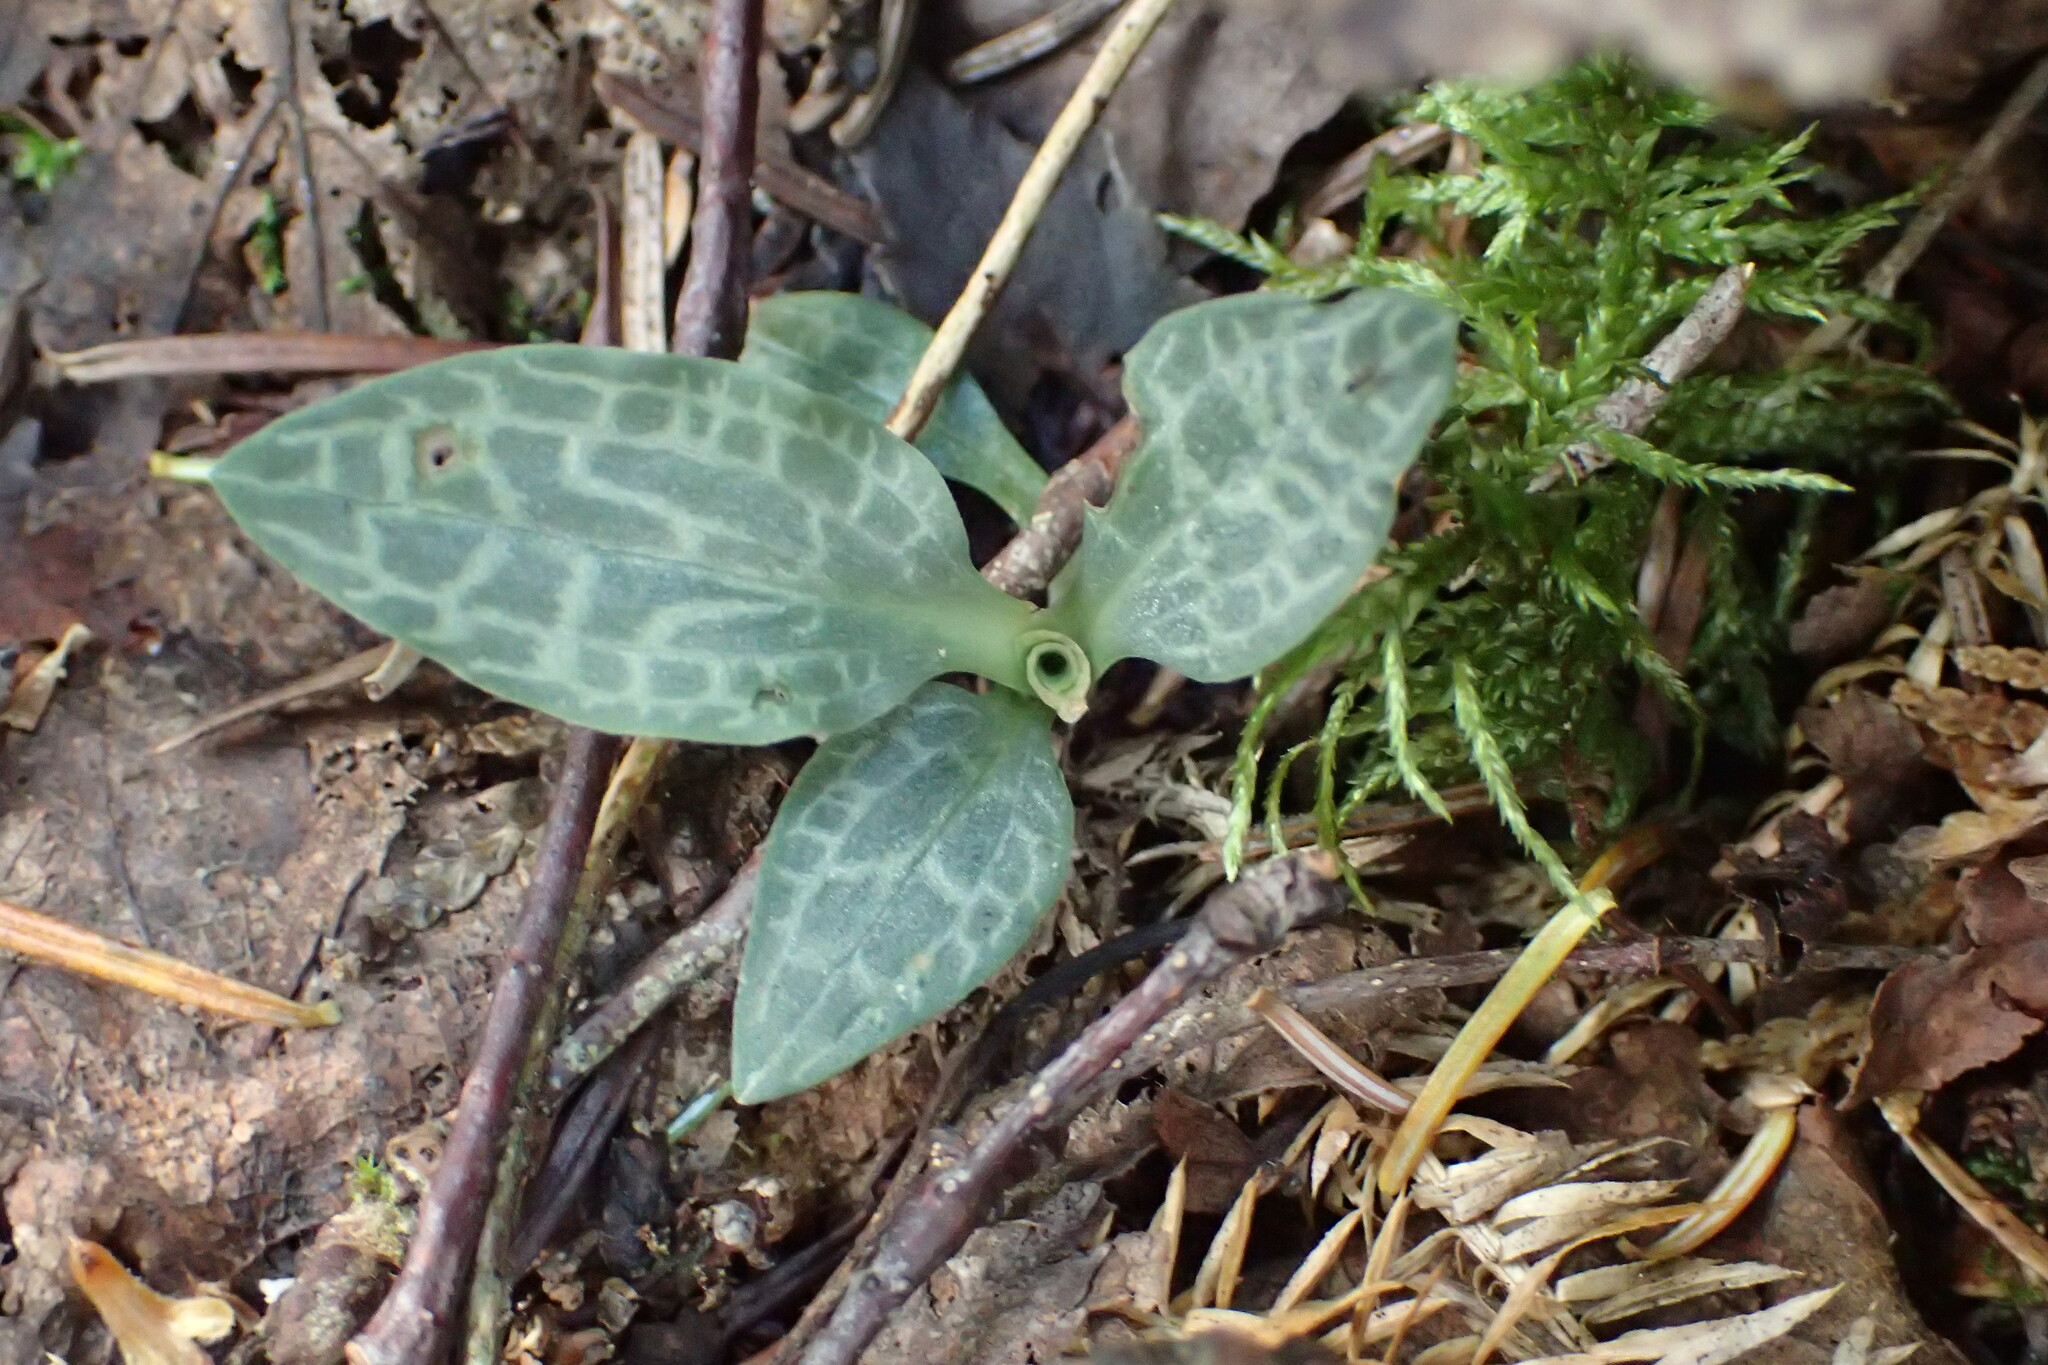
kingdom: Plantae
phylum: Tracheophyta
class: Liliopsida
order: Asparagales
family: Orchidaceae
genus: Goodyera
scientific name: Goodyera tesselata
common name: Checkered rattlesnake-plantain
